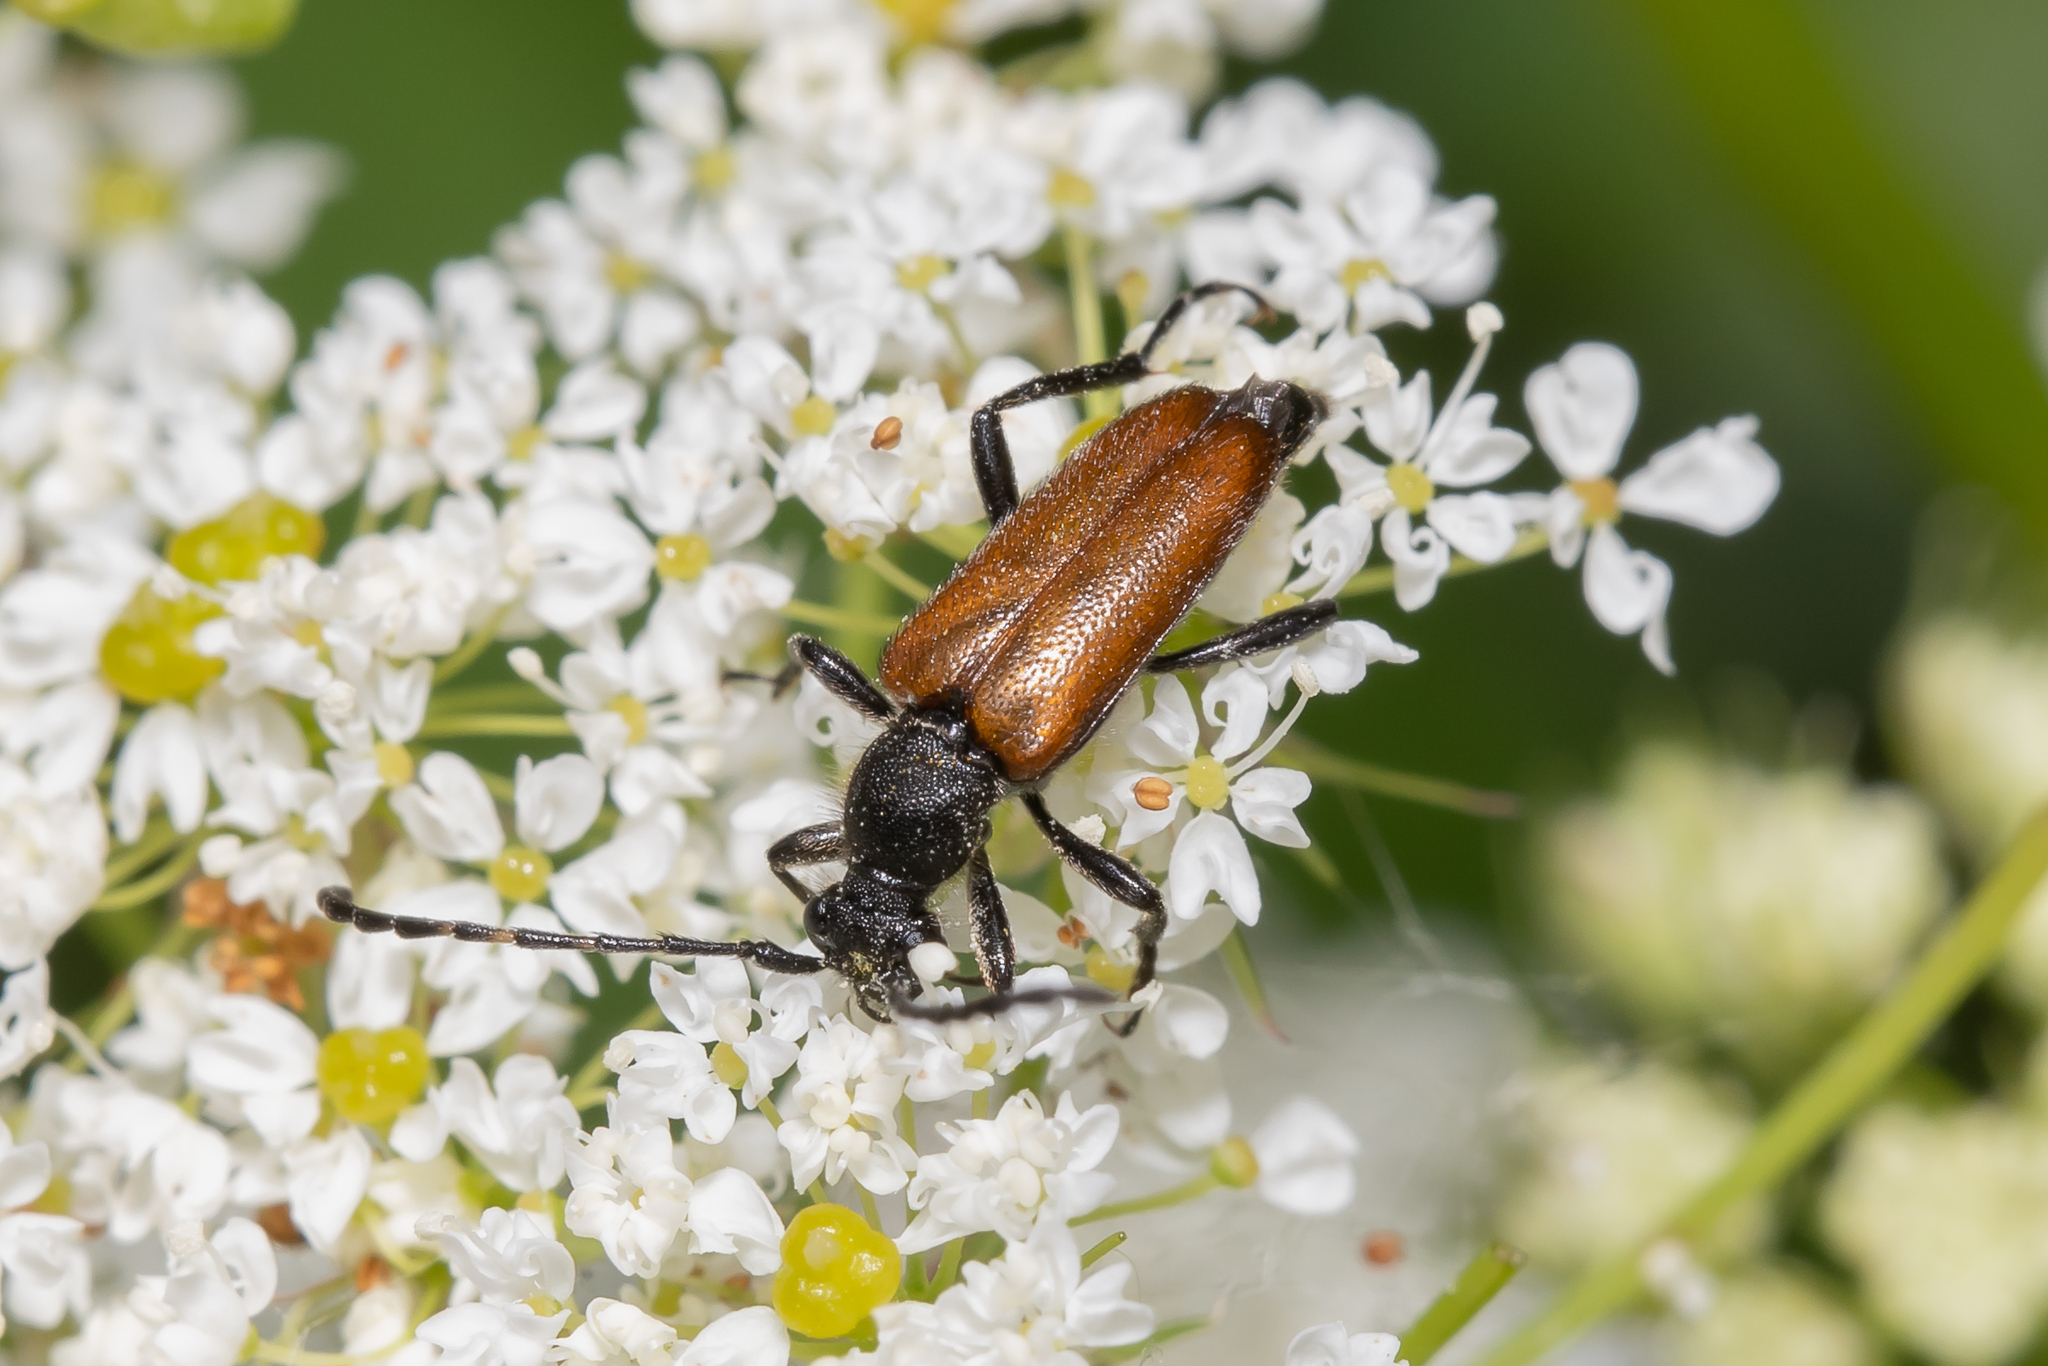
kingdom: Animalia
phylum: Arthropoda
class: Insecta
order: Coleoptera
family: Cerambycidae
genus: Paracorymbia
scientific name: Paracorymbia maculicornis
